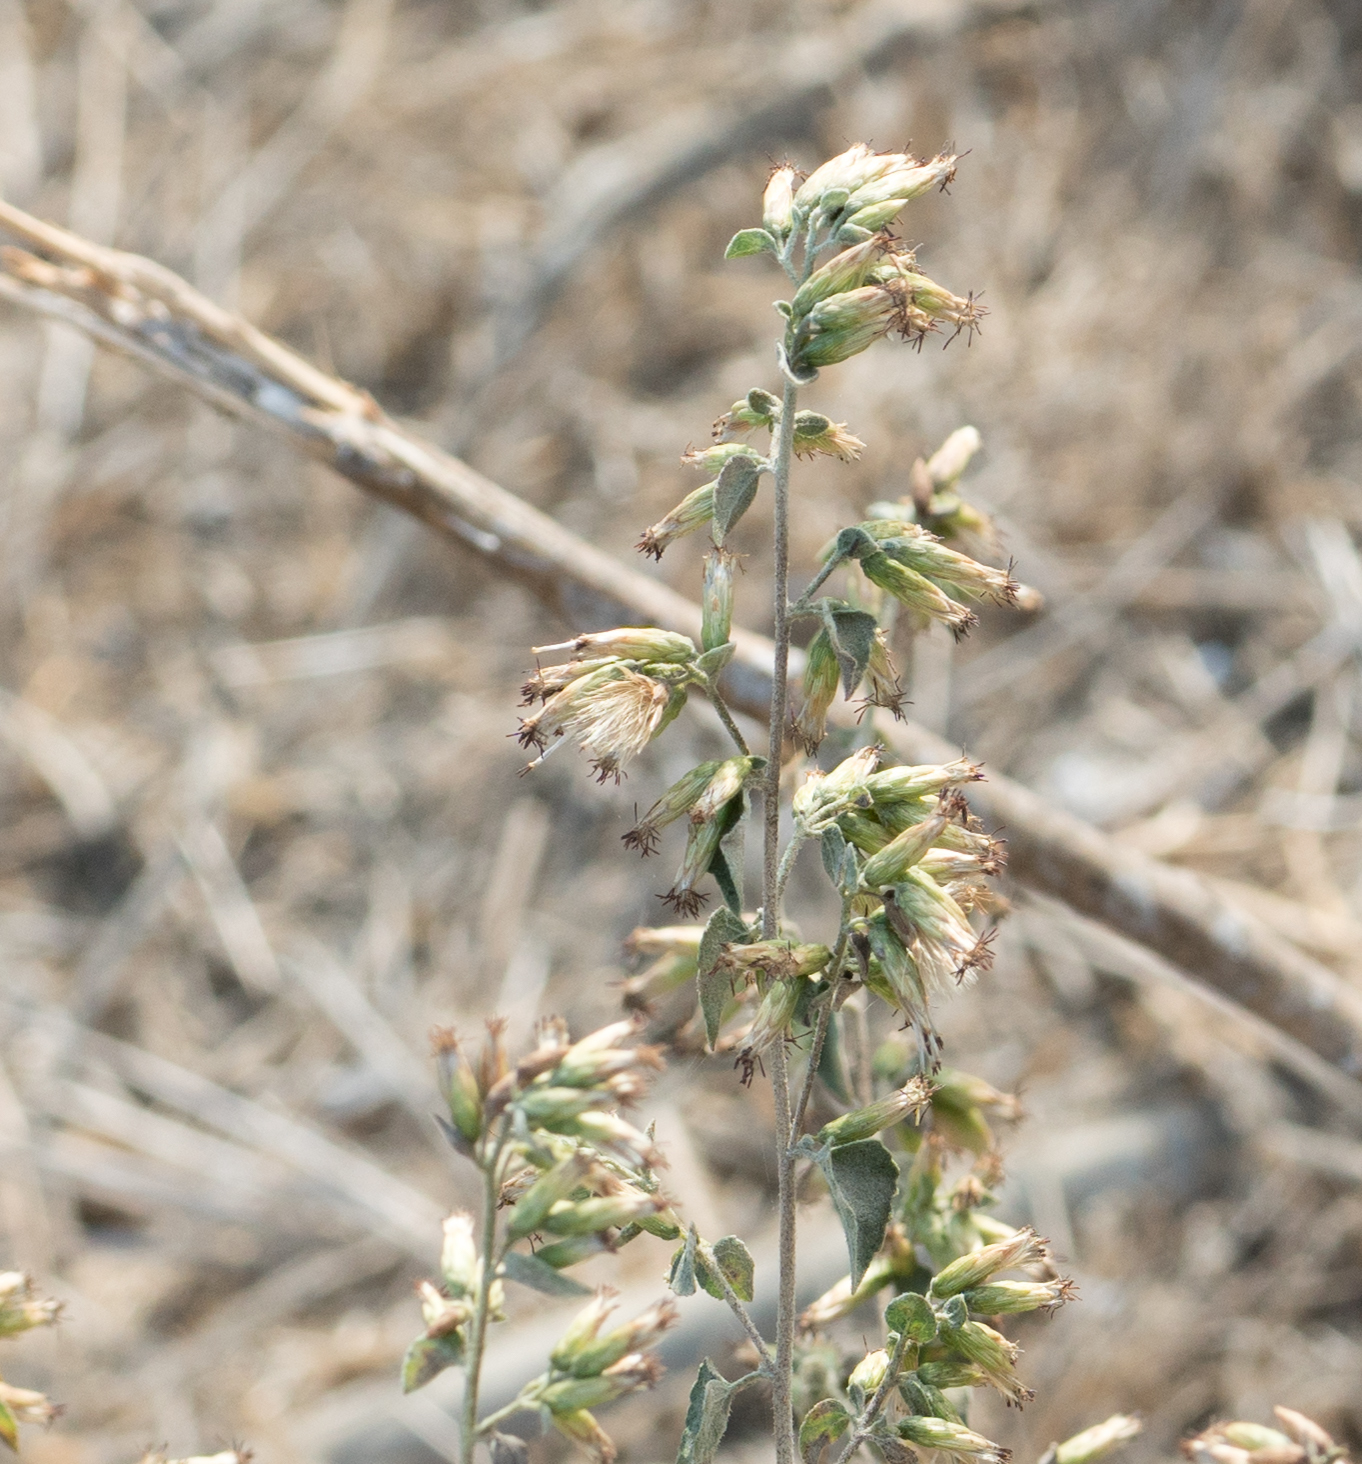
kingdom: Plantae
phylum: Tracheophyta
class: Magnoliopsida
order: Asterales
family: Asteraceae
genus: Brickellia
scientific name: Brickellia californica
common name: California brickellbush
